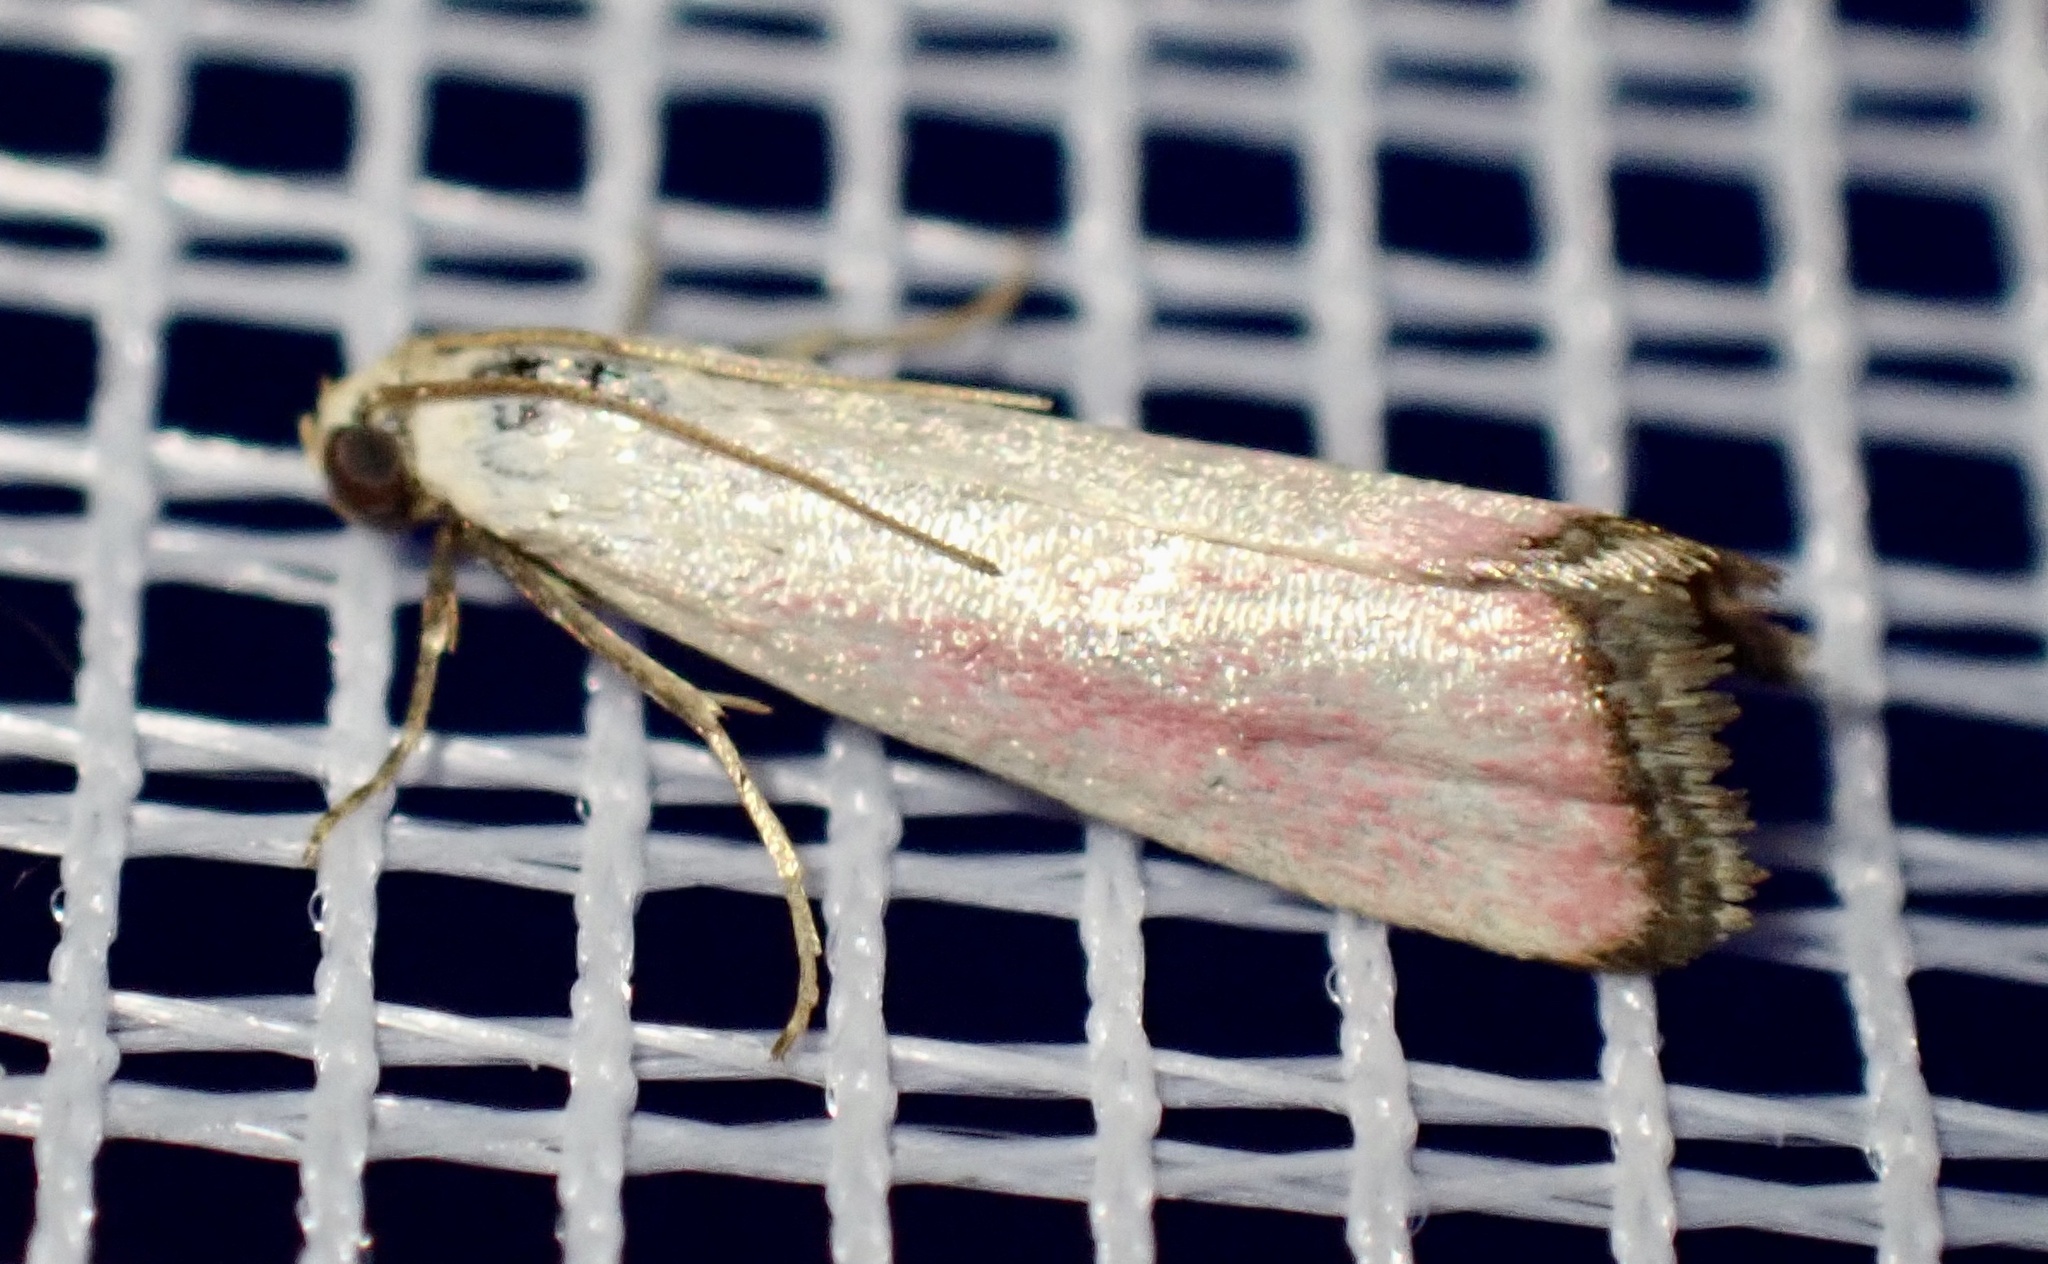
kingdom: Animalia
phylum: Arthropoda
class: Insecta
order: Lepidoptera
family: Pyralidae
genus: Eurhodope
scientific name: Eurhodope rosella
